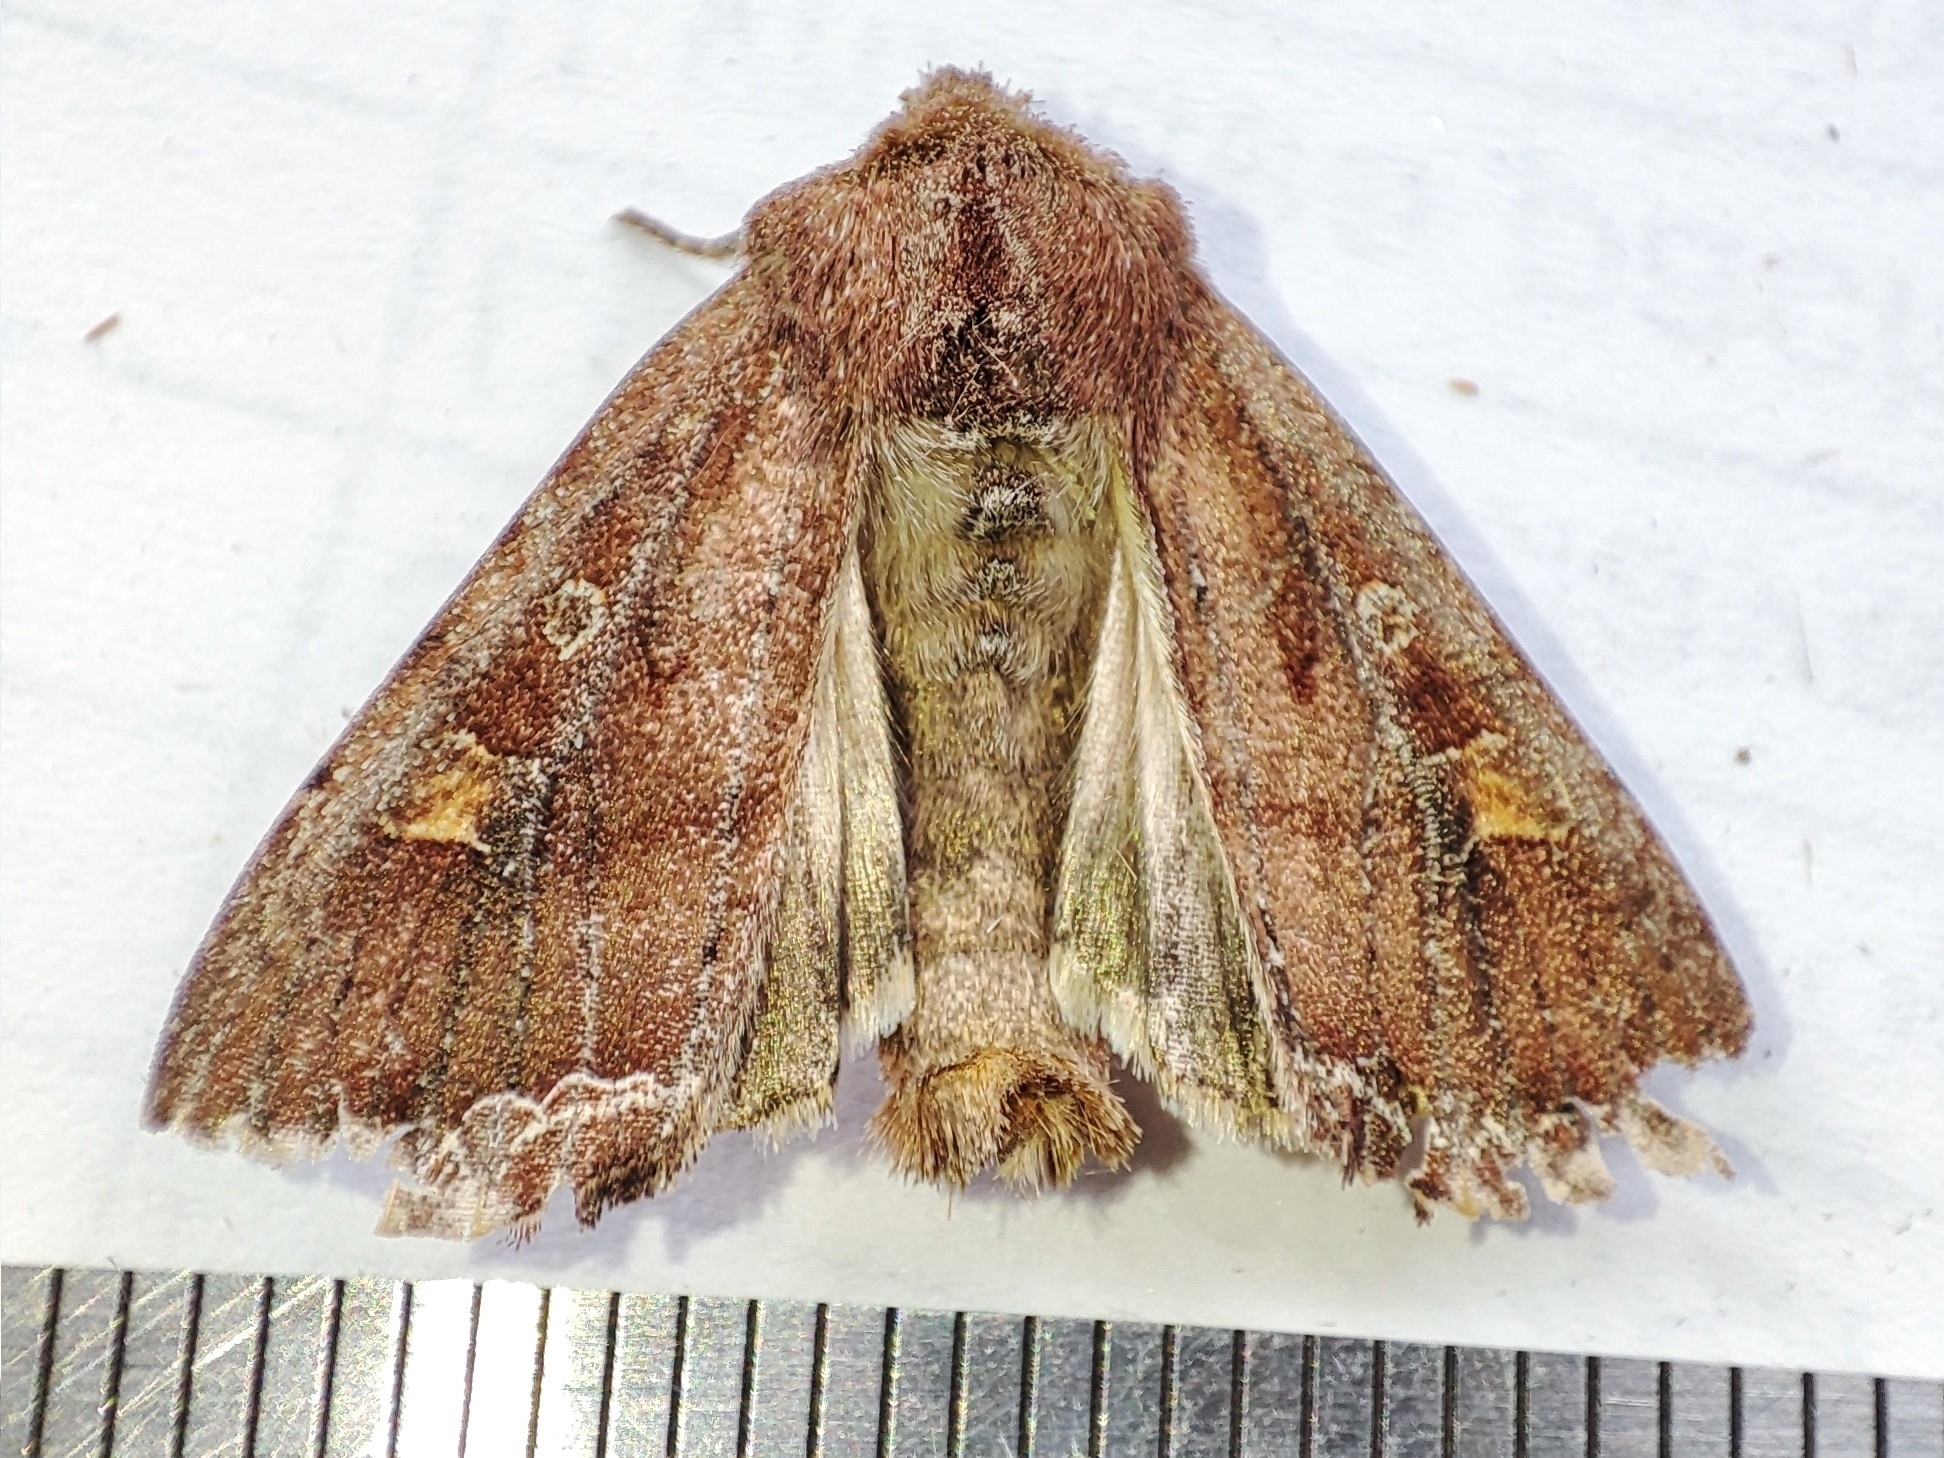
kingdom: Animalia
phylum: Arthropoda
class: Insecta
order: Lepidoptera
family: Noctuidae
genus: Lacanobia
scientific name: Lacanobia oleracea
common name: Bright-line brown-eye
